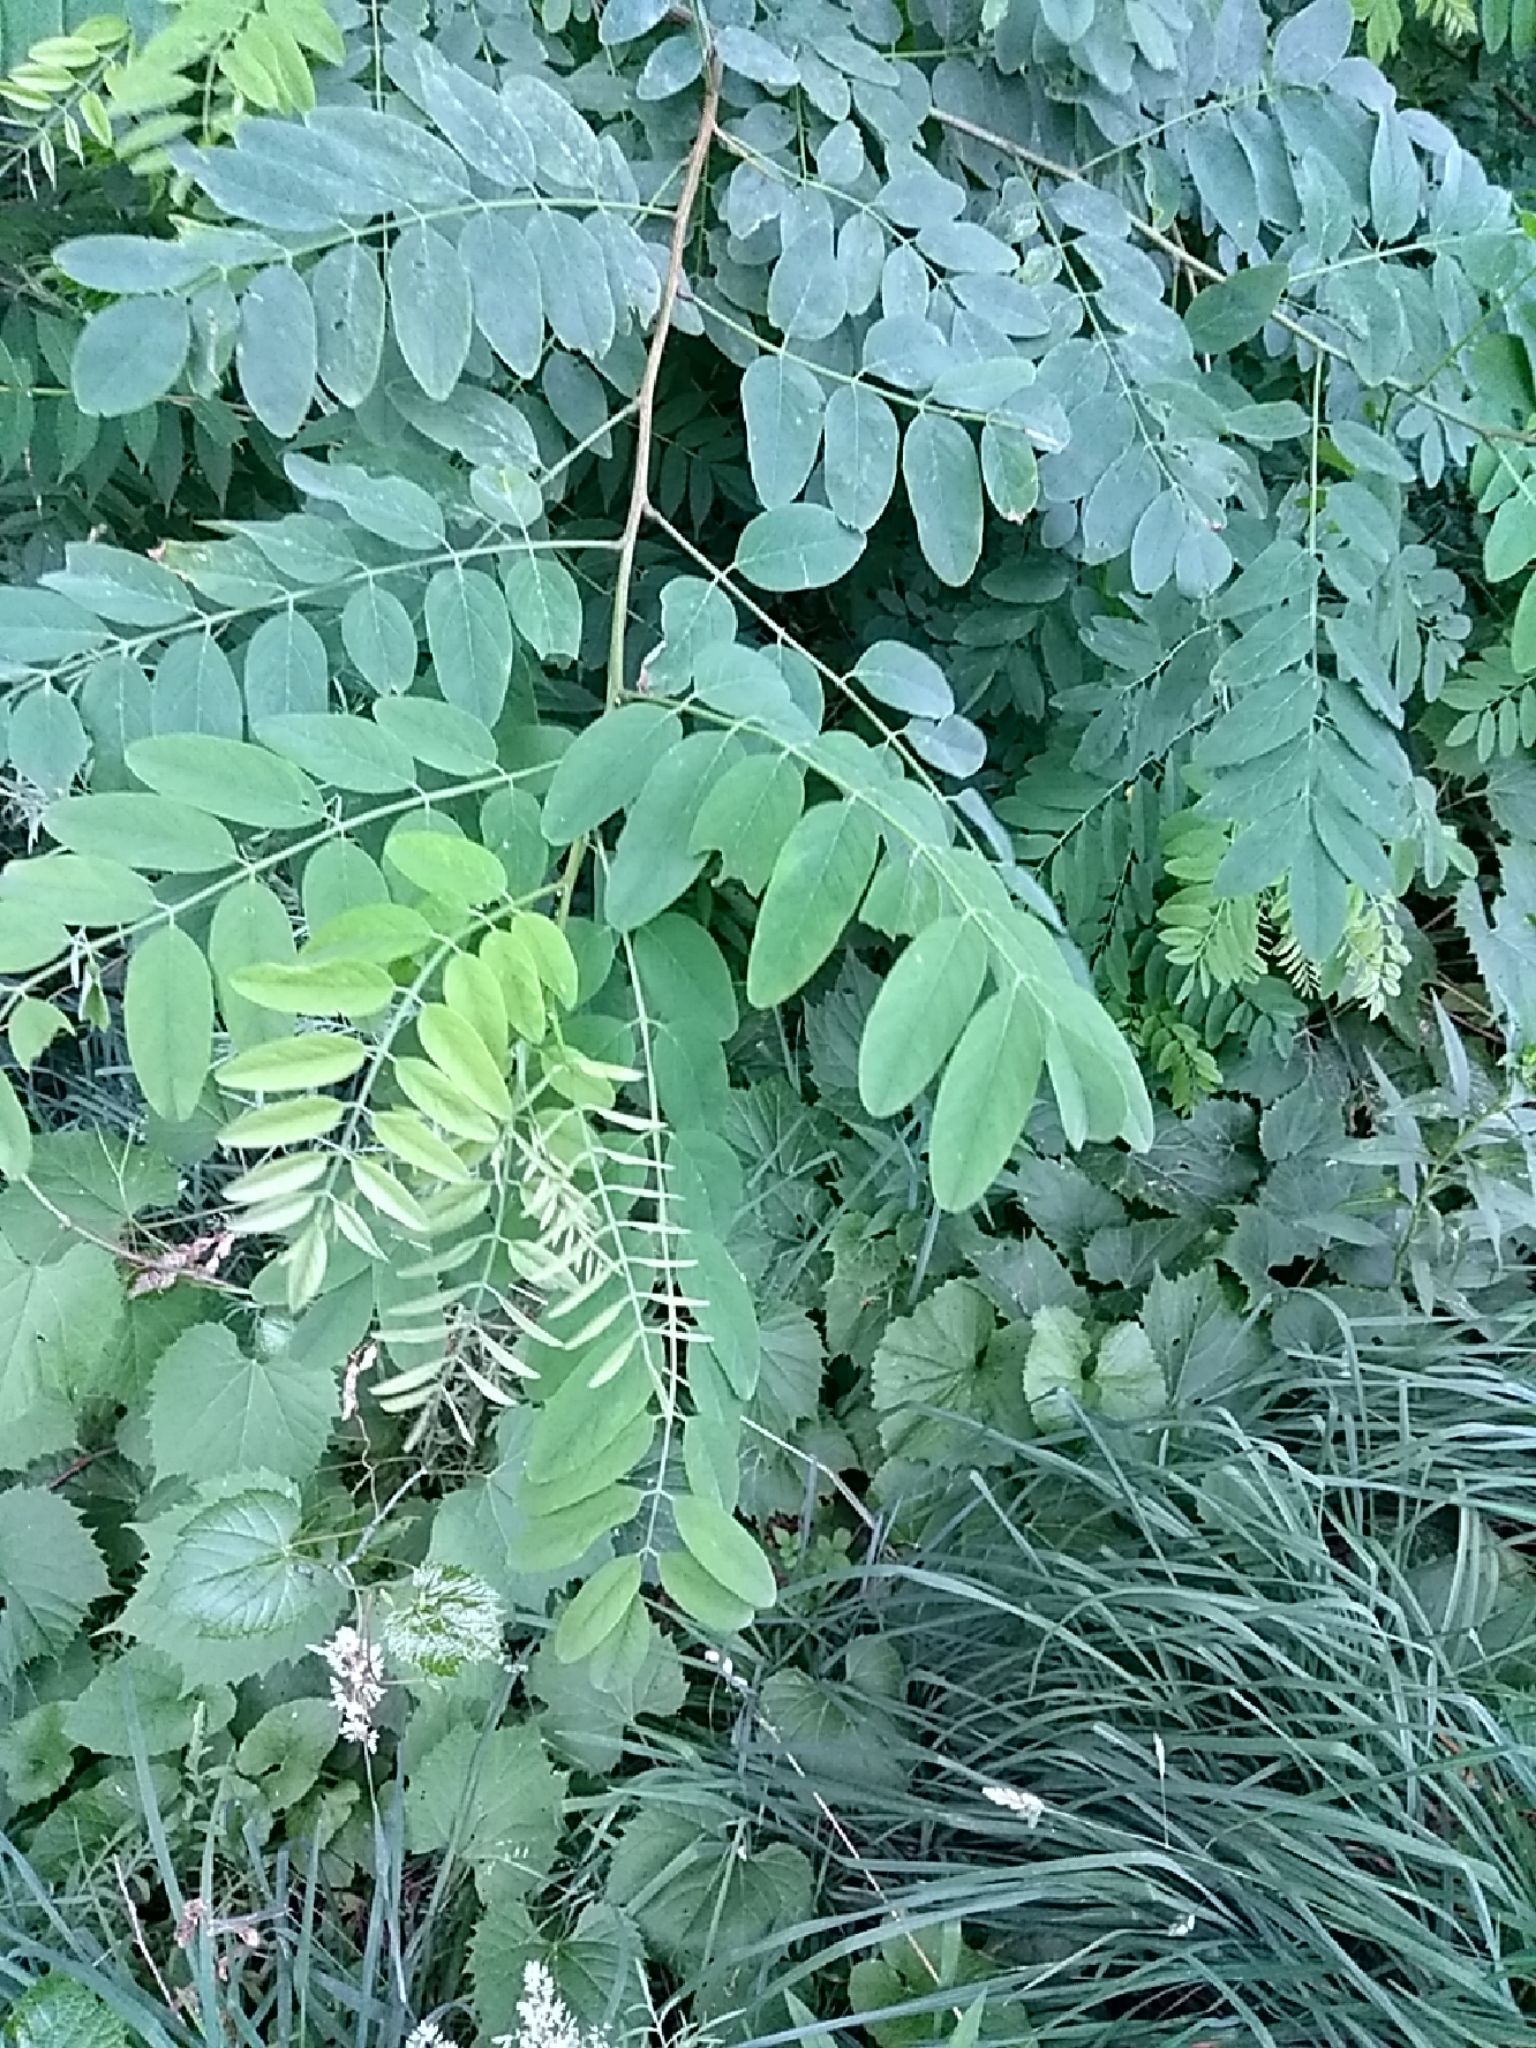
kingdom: Plantae
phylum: Tracheophyta
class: Magnoliopsida
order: Fabales
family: Fabaceae
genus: Robinia
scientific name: Robinia pseudoacacia
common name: Black locust
